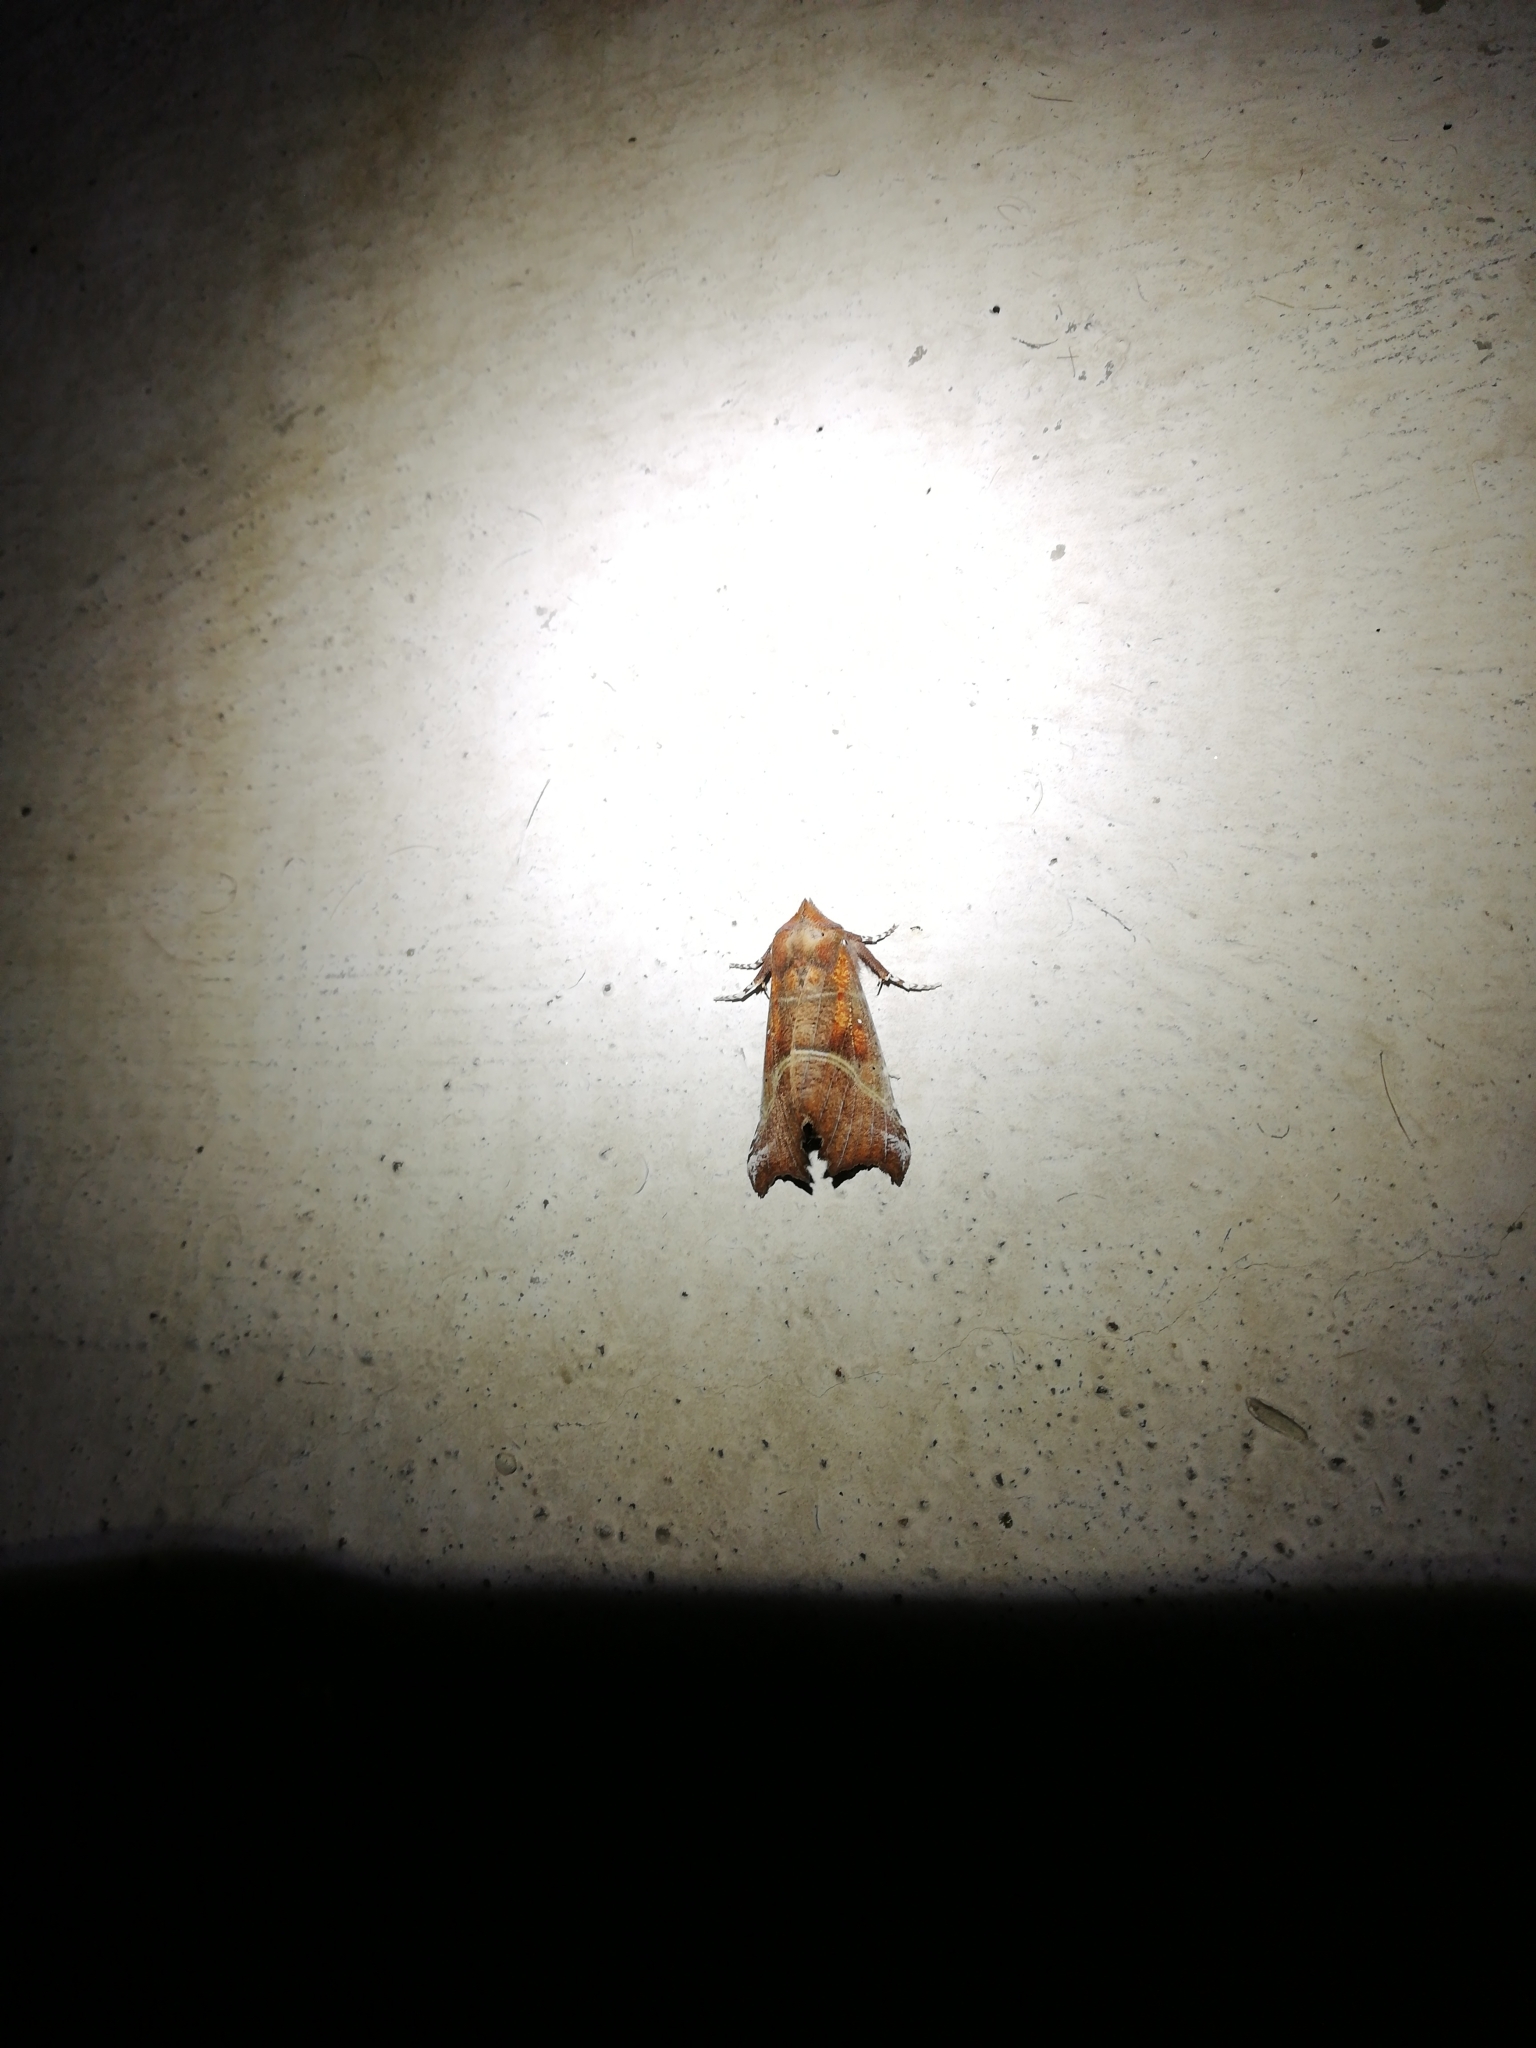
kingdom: Animalia
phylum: Arthropoda
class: Insecta
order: Lepidoptera
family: Erebidae
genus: Scoliopteryx
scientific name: Scoliopteryx libatrix
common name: Herald
